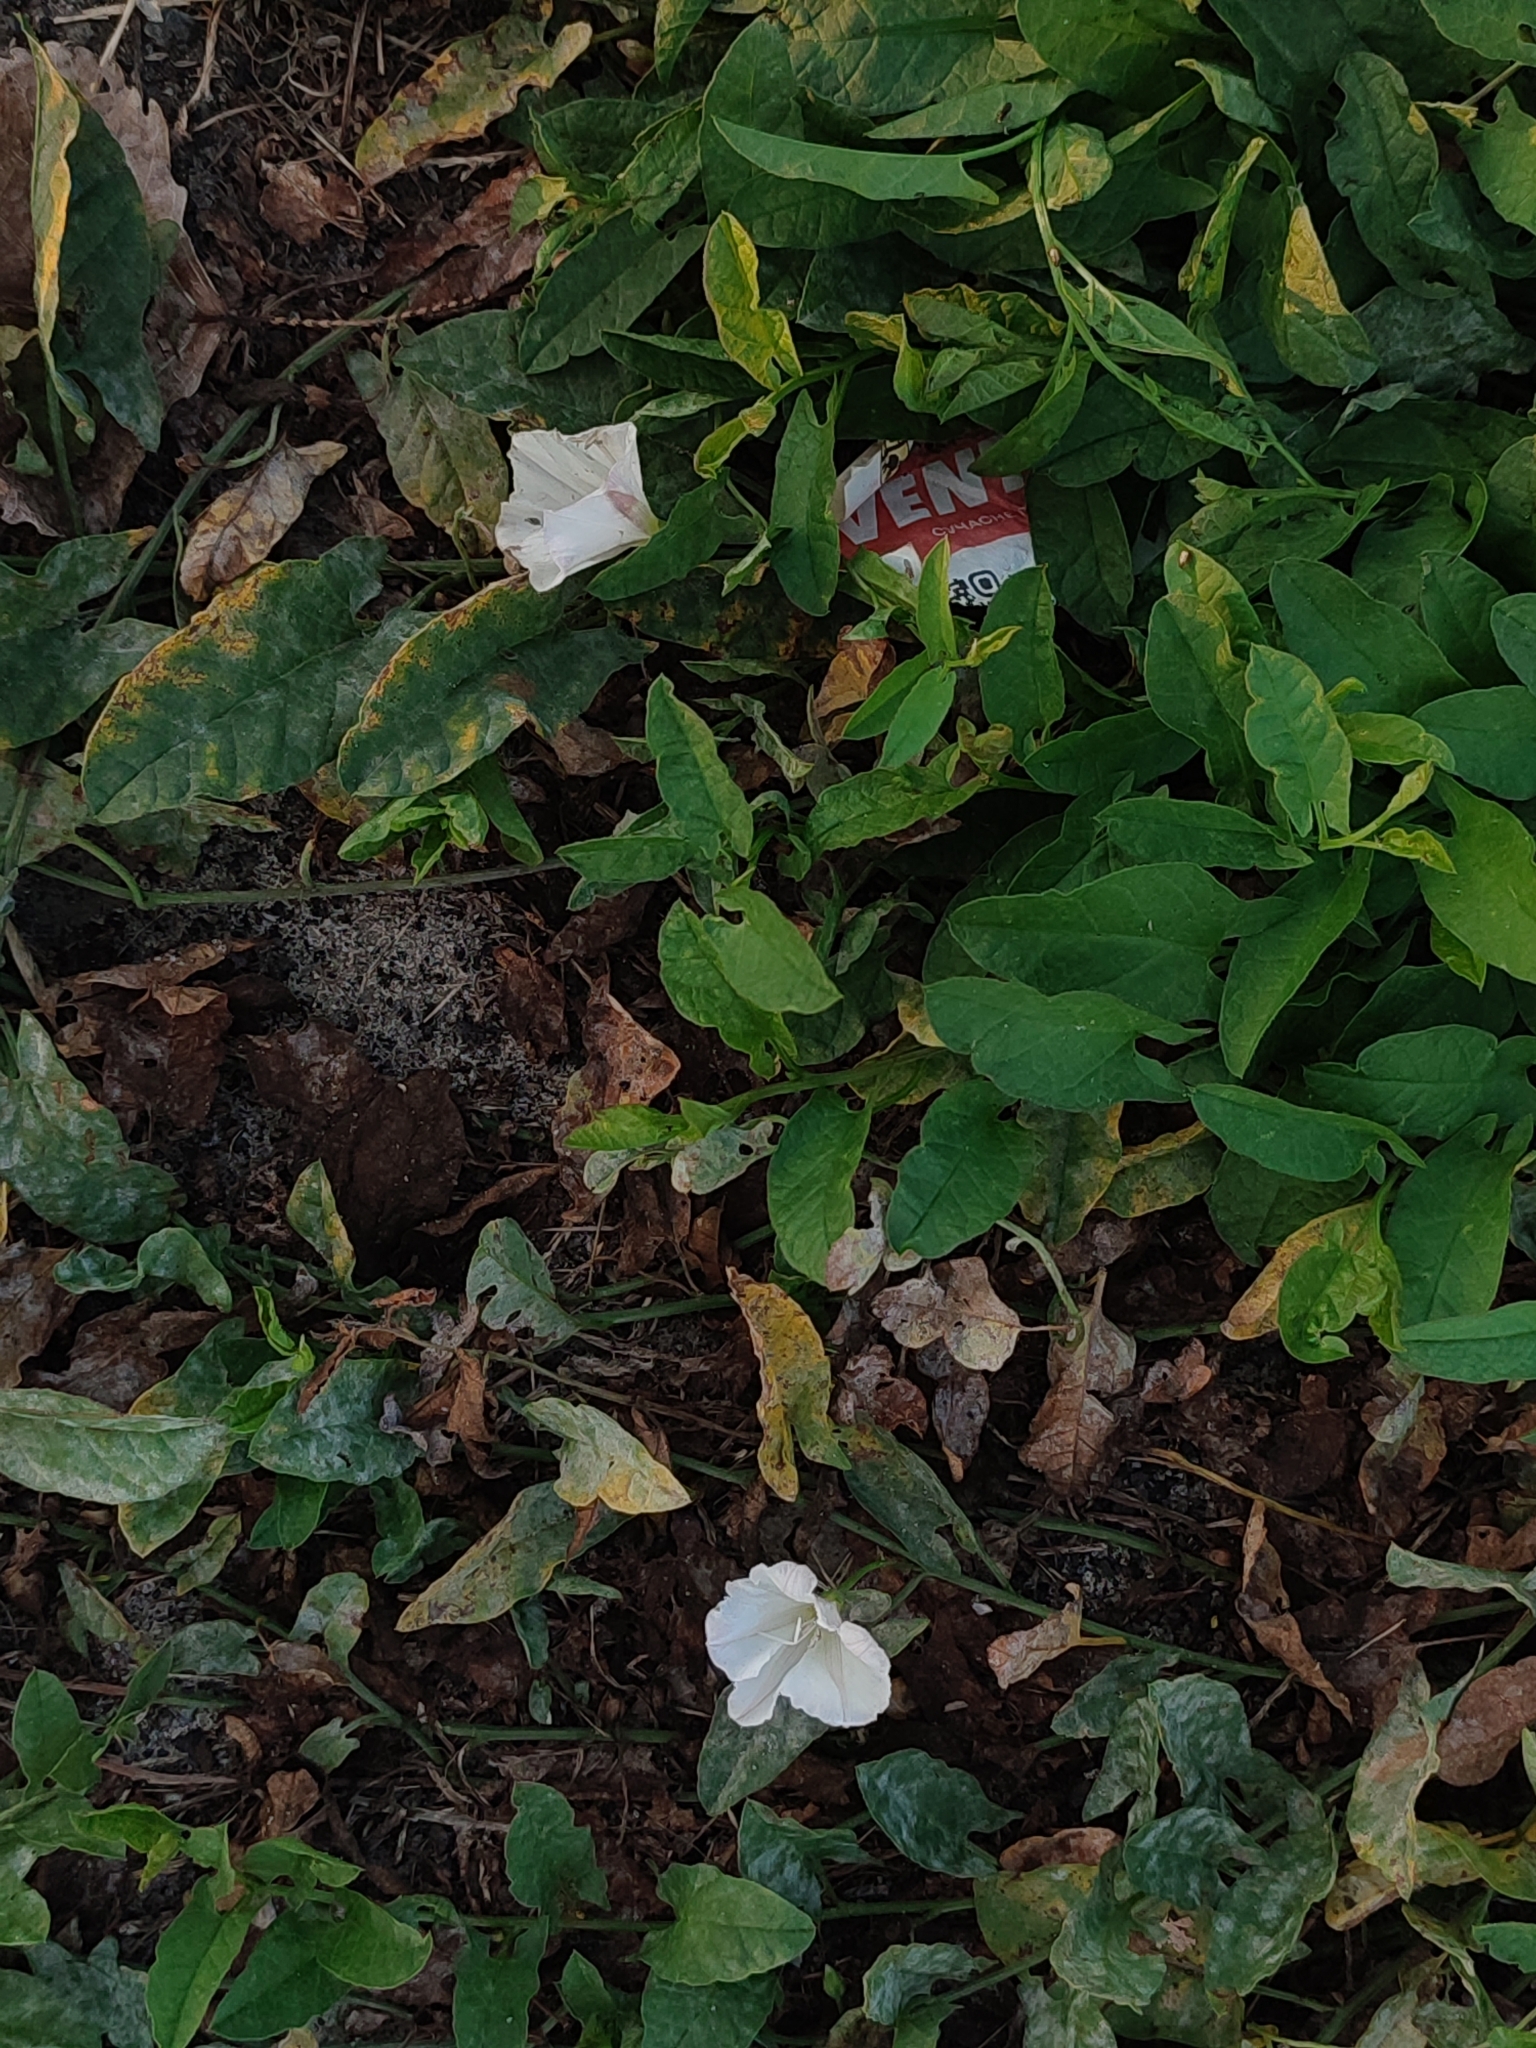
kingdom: Plantae
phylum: Tracheophyta
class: Magnoliopsida
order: Solanales
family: Convolvulaceae
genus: Convolvulus
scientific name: Convolvulus arvensis
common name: Field bindweed
